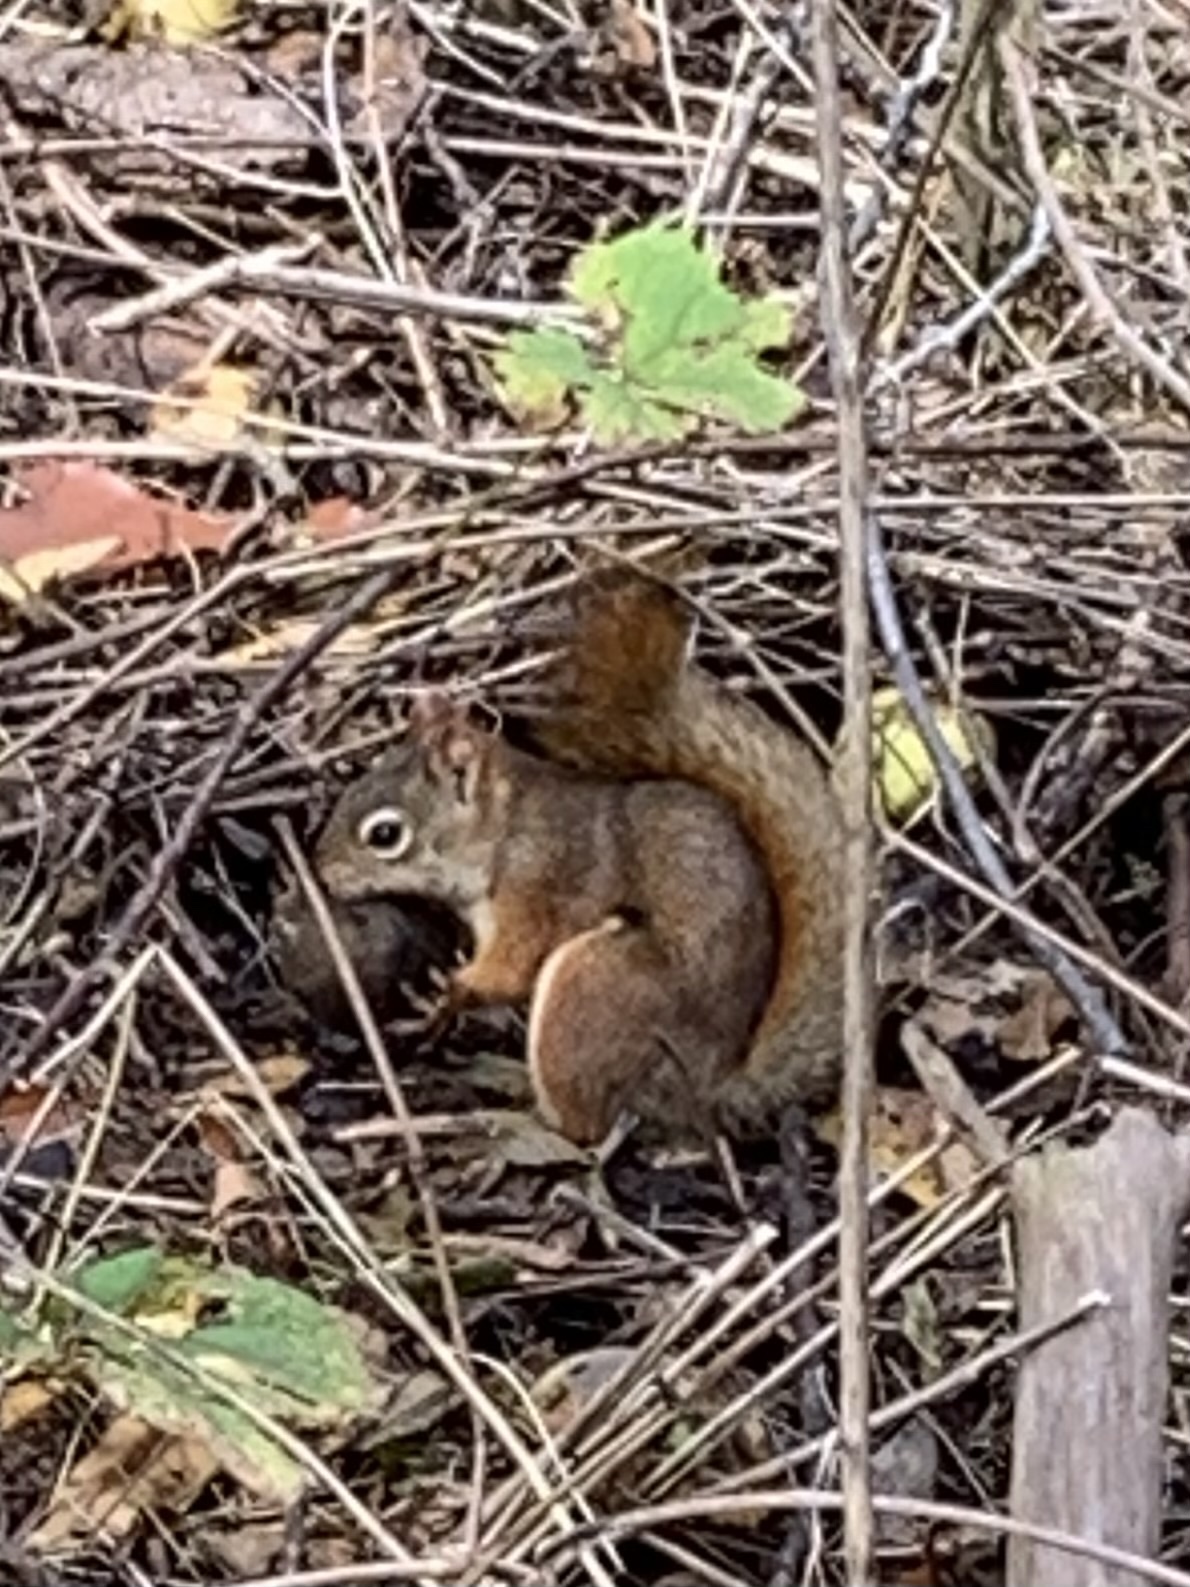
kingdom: Animalia
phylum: Chordata
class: Mammalia
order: Rodentia
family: Sciuridae
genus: Tamiasciurus
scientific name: Tamiasciurus hudsonicus
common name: Red squirrel
